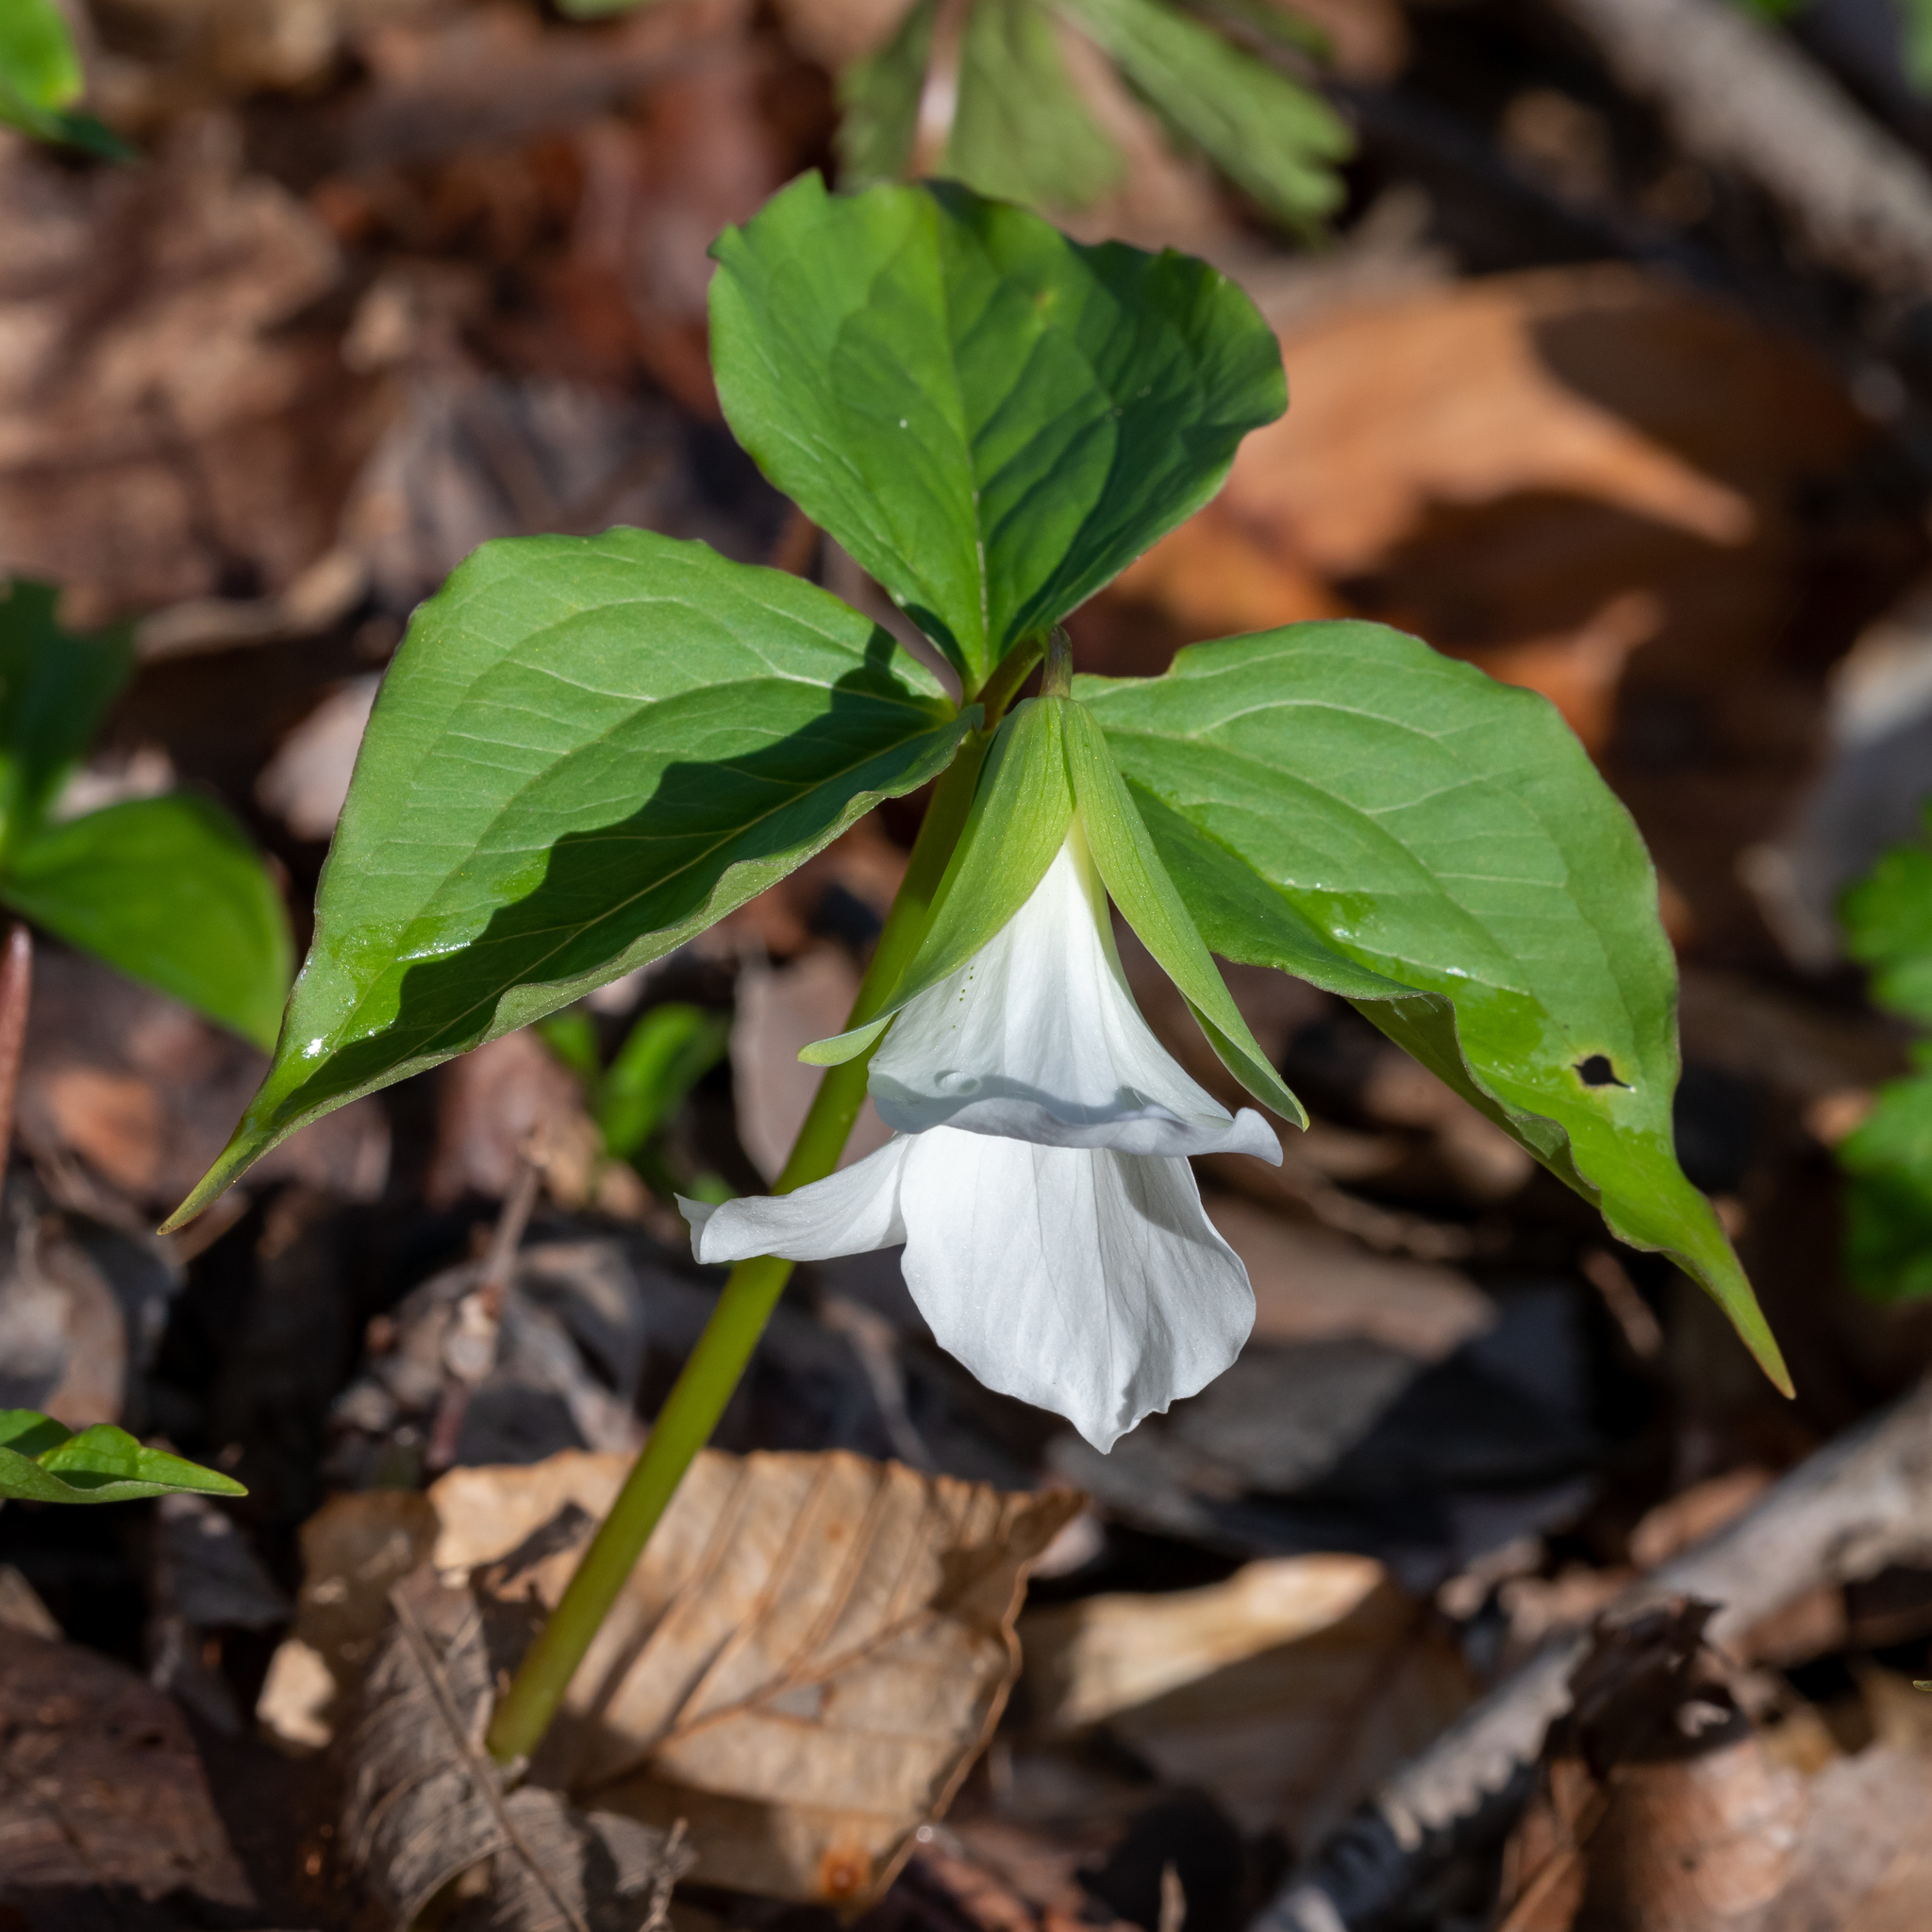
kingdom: Plantae
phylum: Tracheophyta
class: Liliopsida
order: Liliales
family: Melanthiaceae
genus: Trillium
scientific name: Trillium grandiflorum
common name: Great white trillium
